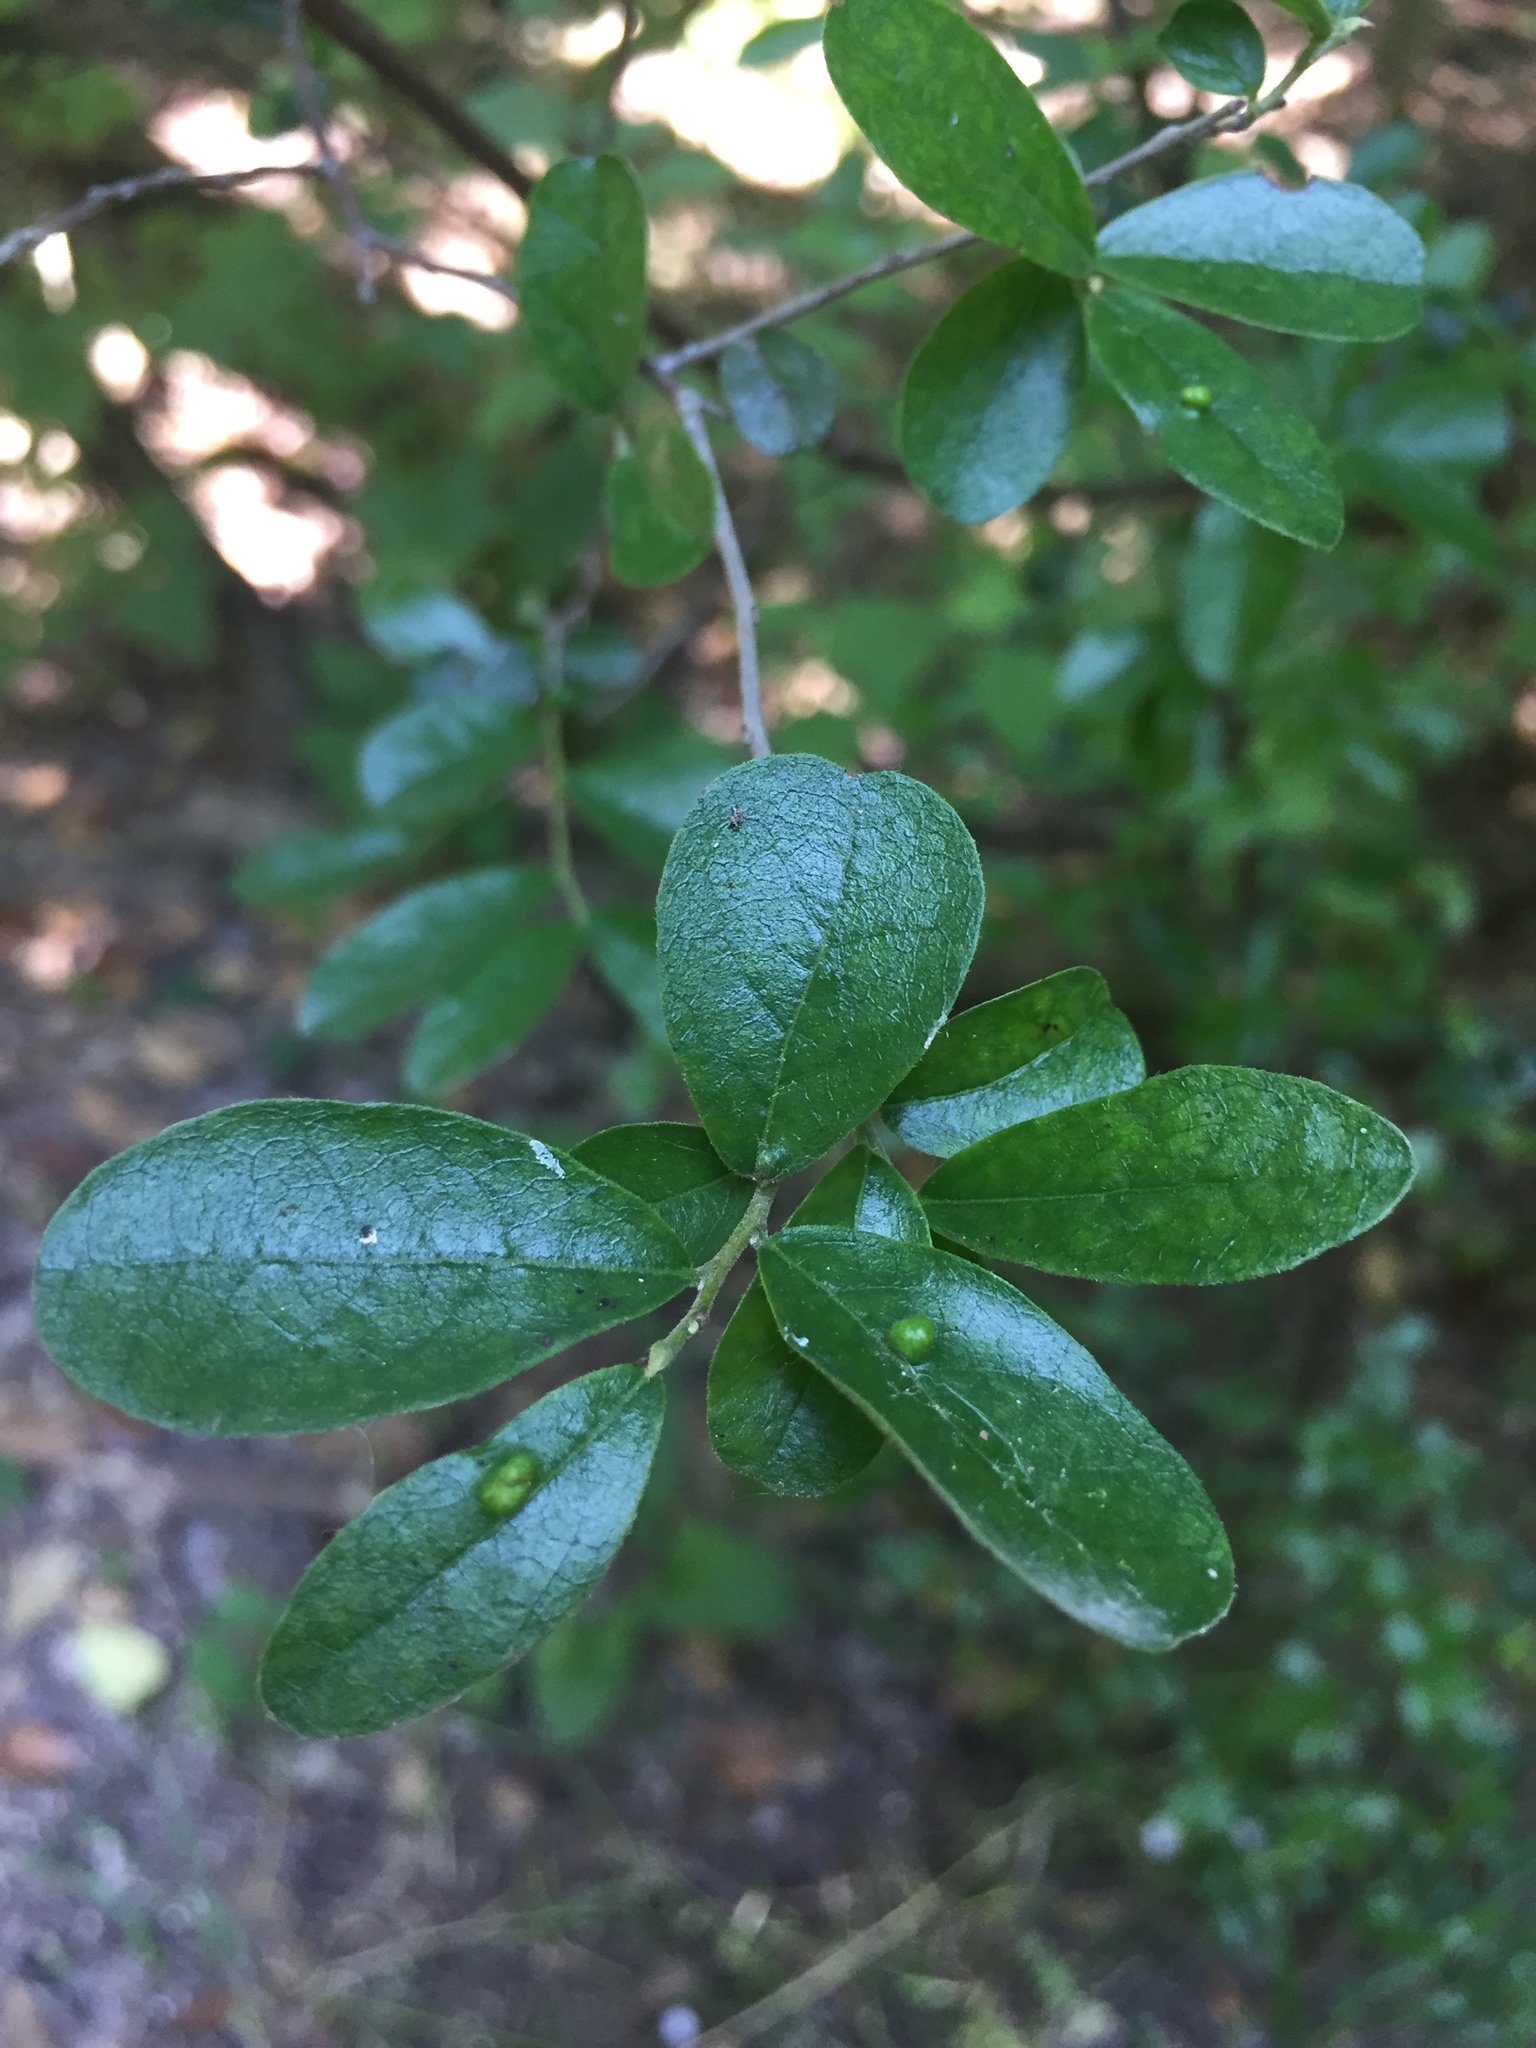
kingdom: Plantae
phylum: Tracheophyta
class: Magnoliopsida
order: Ericales
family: Ebenaceae
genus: Diospyros
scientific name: Diospyros texana
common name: Texas persimmon
